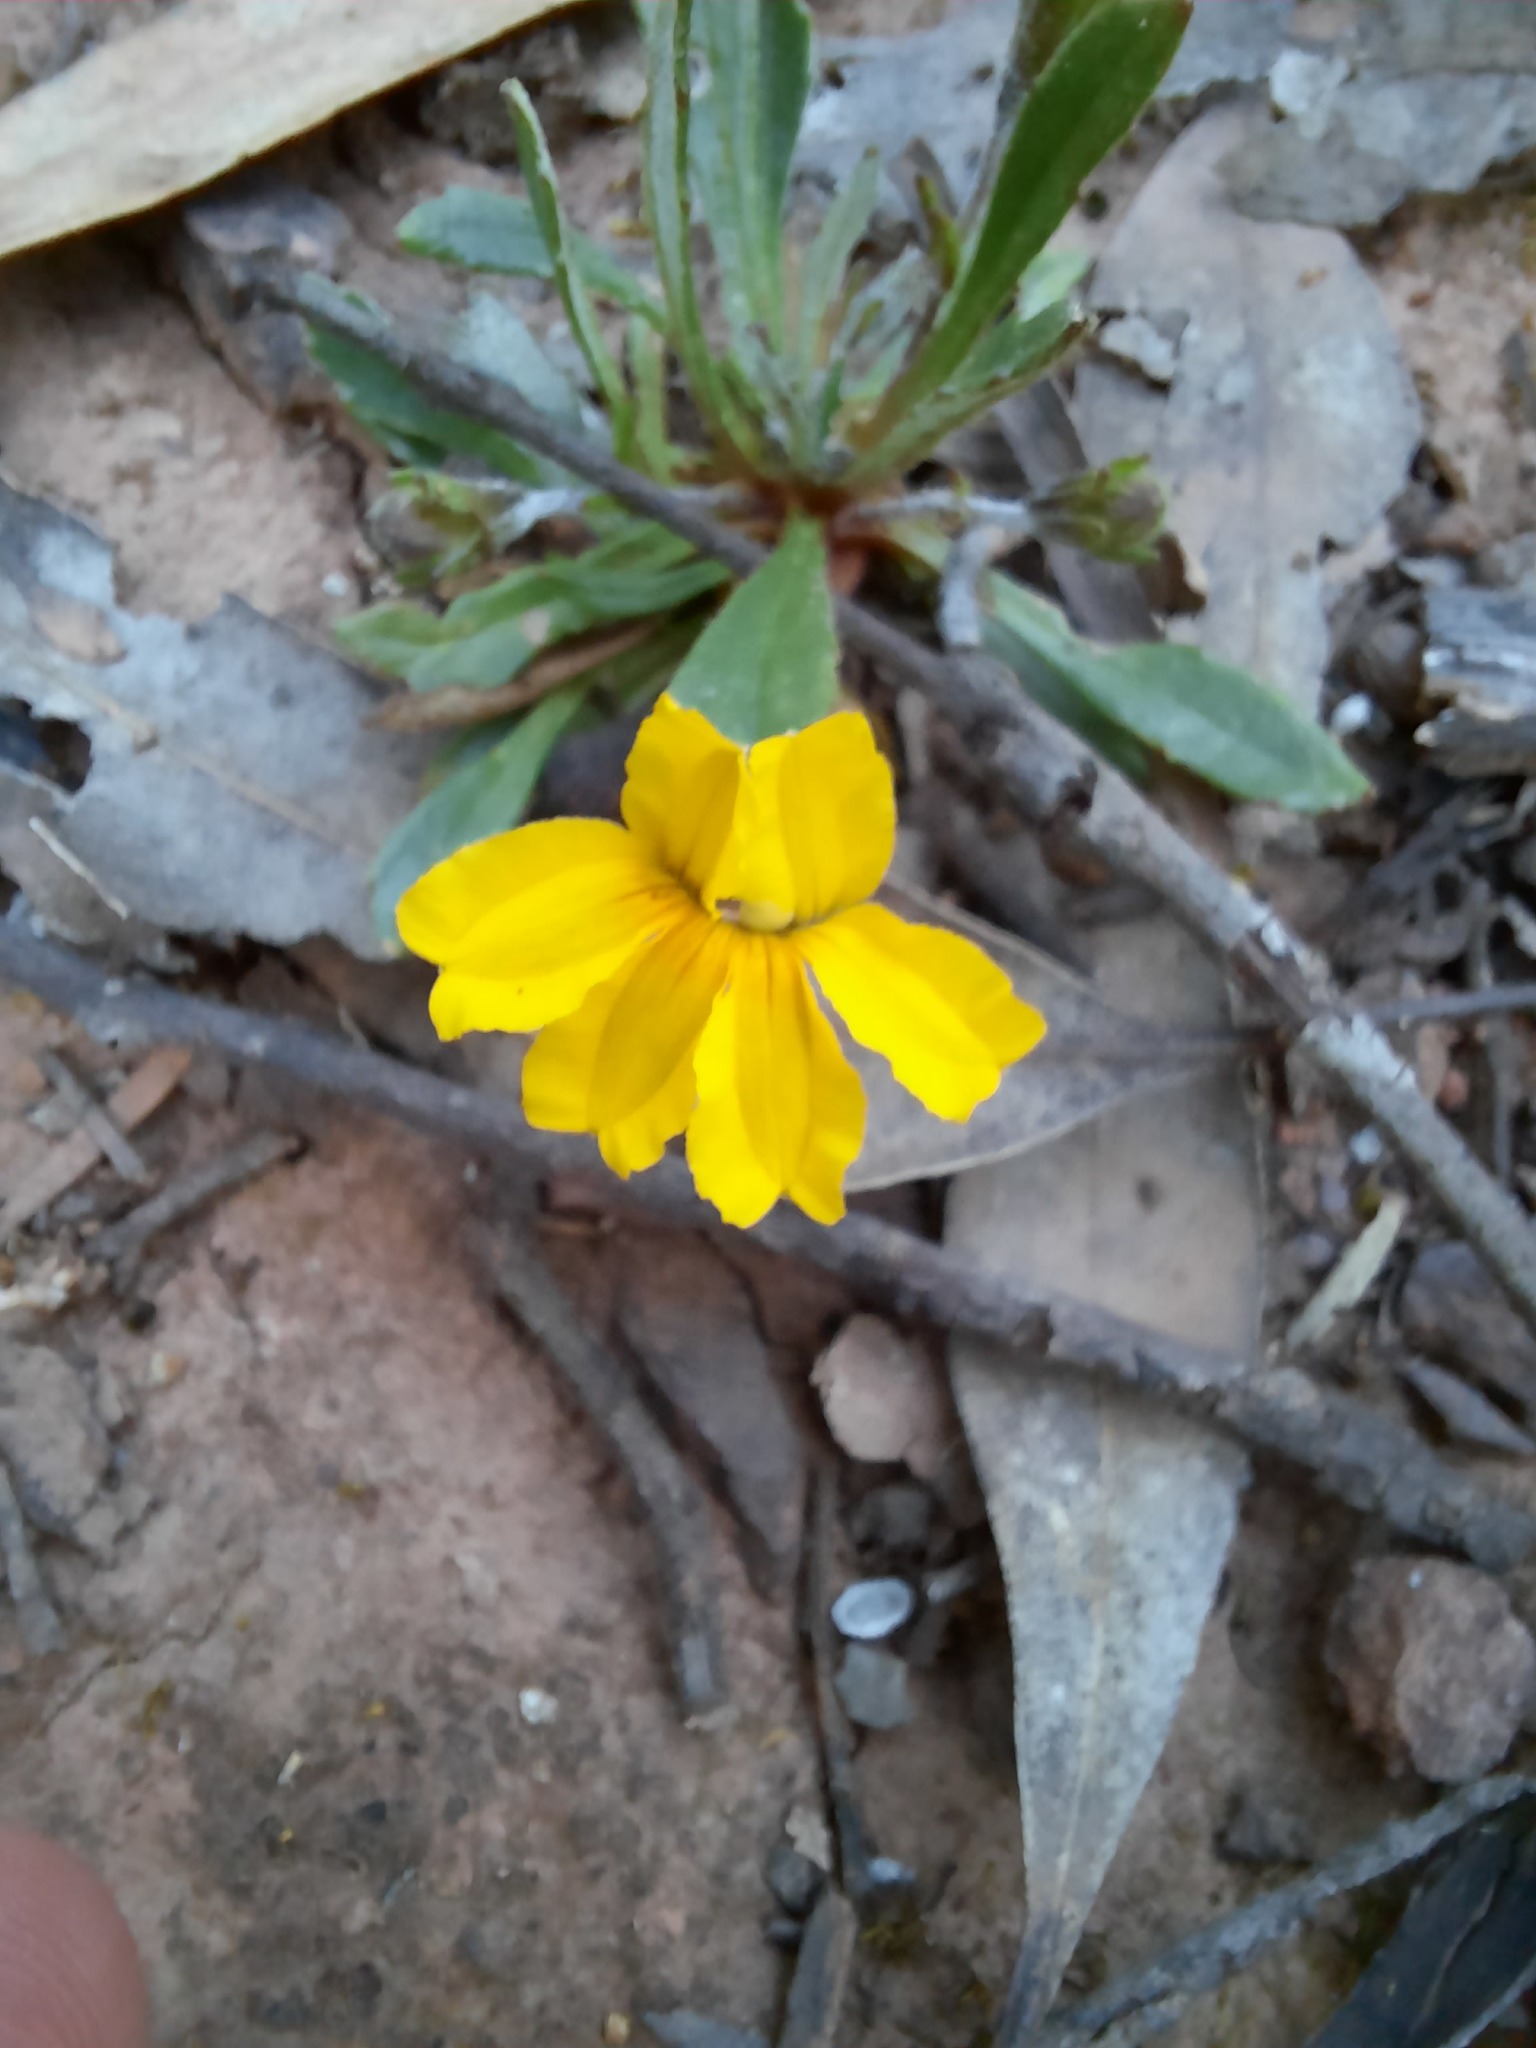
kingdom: Plantae
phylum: Tracheophyta
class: Magnoliopsida
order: Asterales
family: Goodeniaceae
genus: Goodenia
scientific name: Goodenia blackiana
